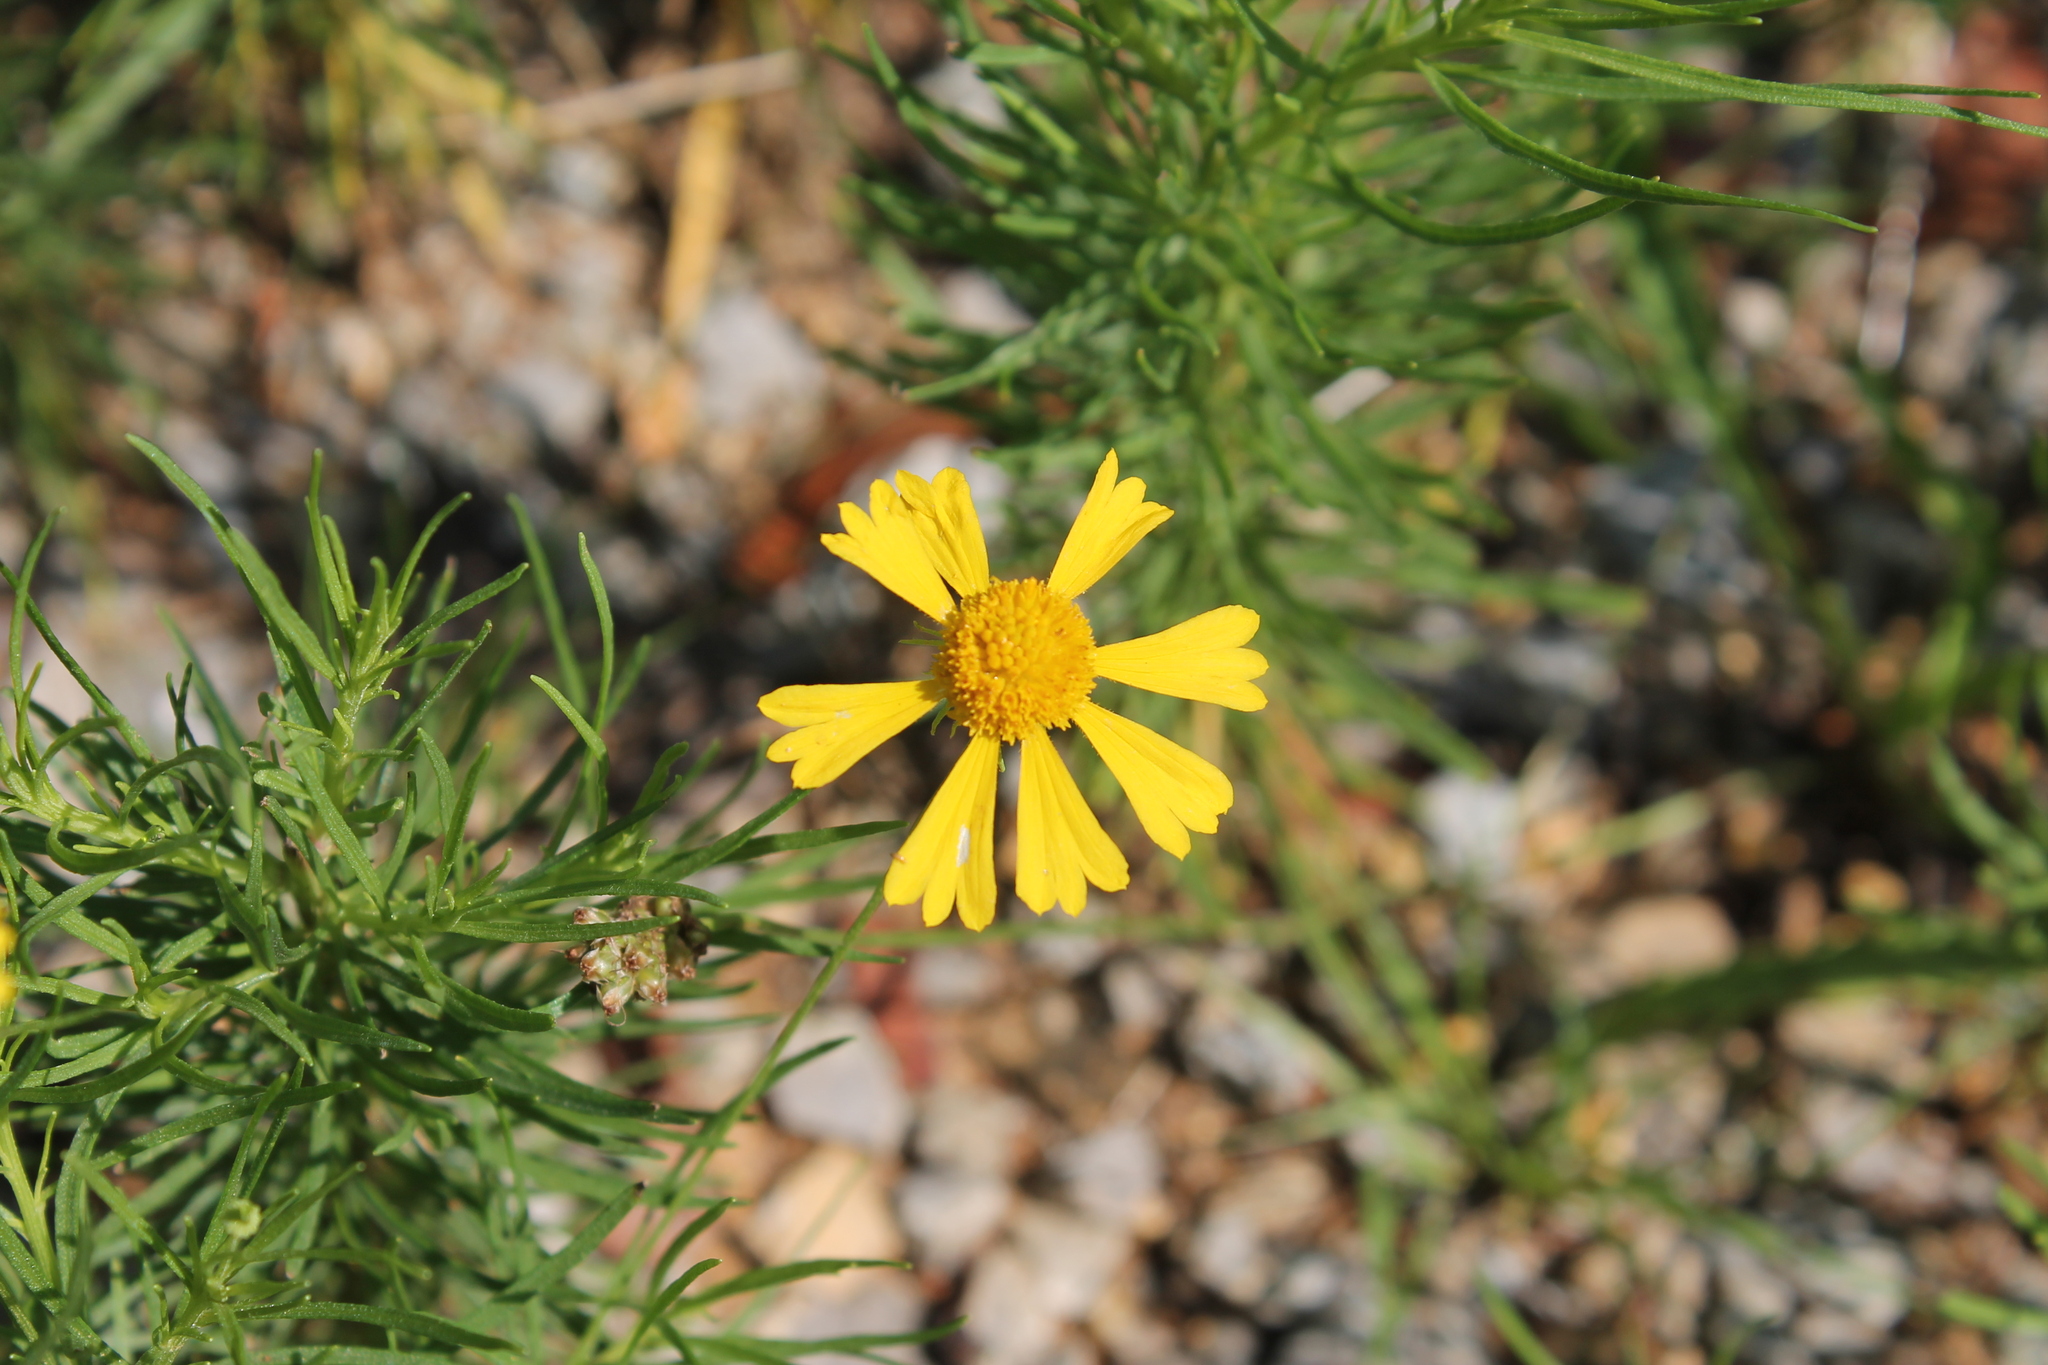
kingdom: Plantae
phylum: Tracheophyta
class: Magnoliopsida
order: Asterales
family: Asteraceae
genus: Helenium
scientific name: Helenium amarum
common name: Bitter sneezeweed
